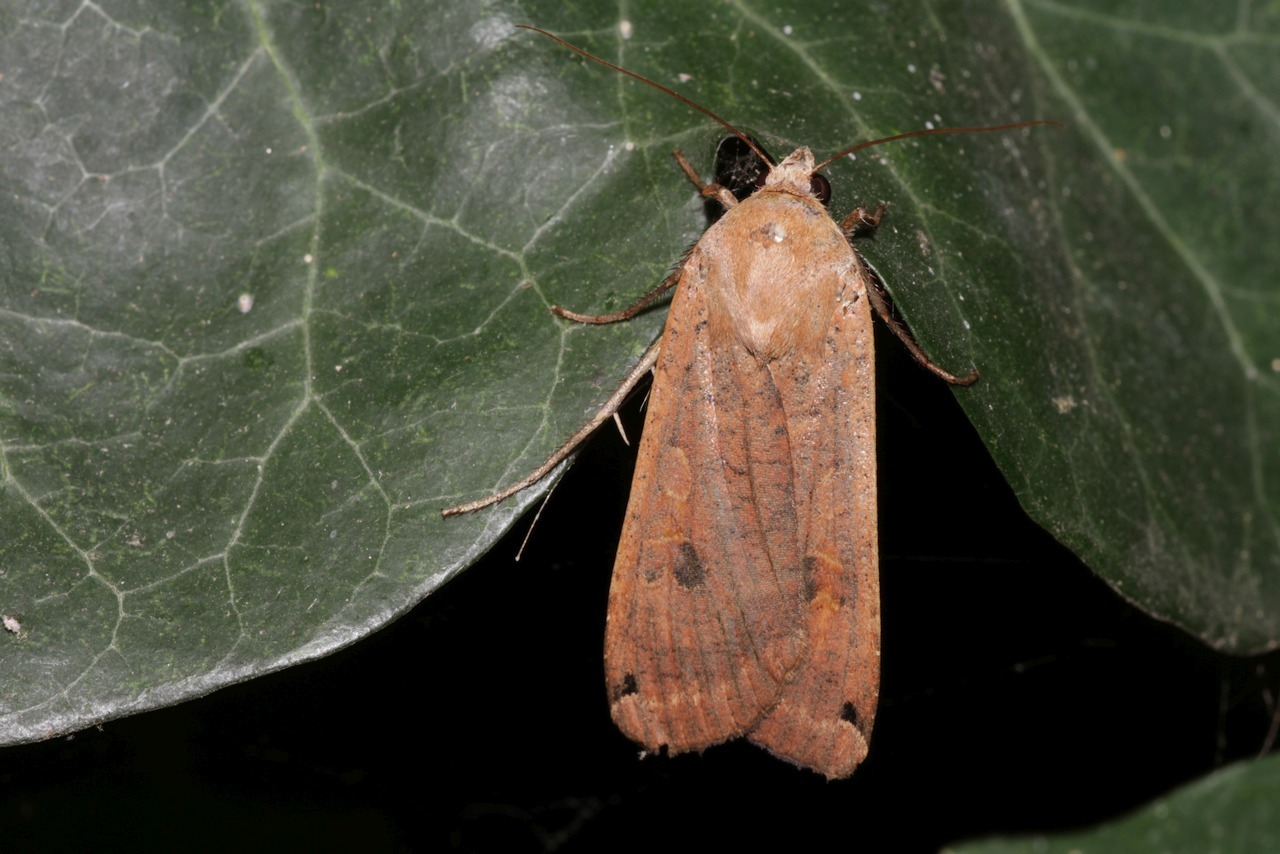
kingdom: Animalia
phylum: Arthropoda
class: Insecta
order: Lepidoptera
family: Noctuidae
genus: Noctua
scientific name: Noctua pronuba
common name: Large yellow underwing
